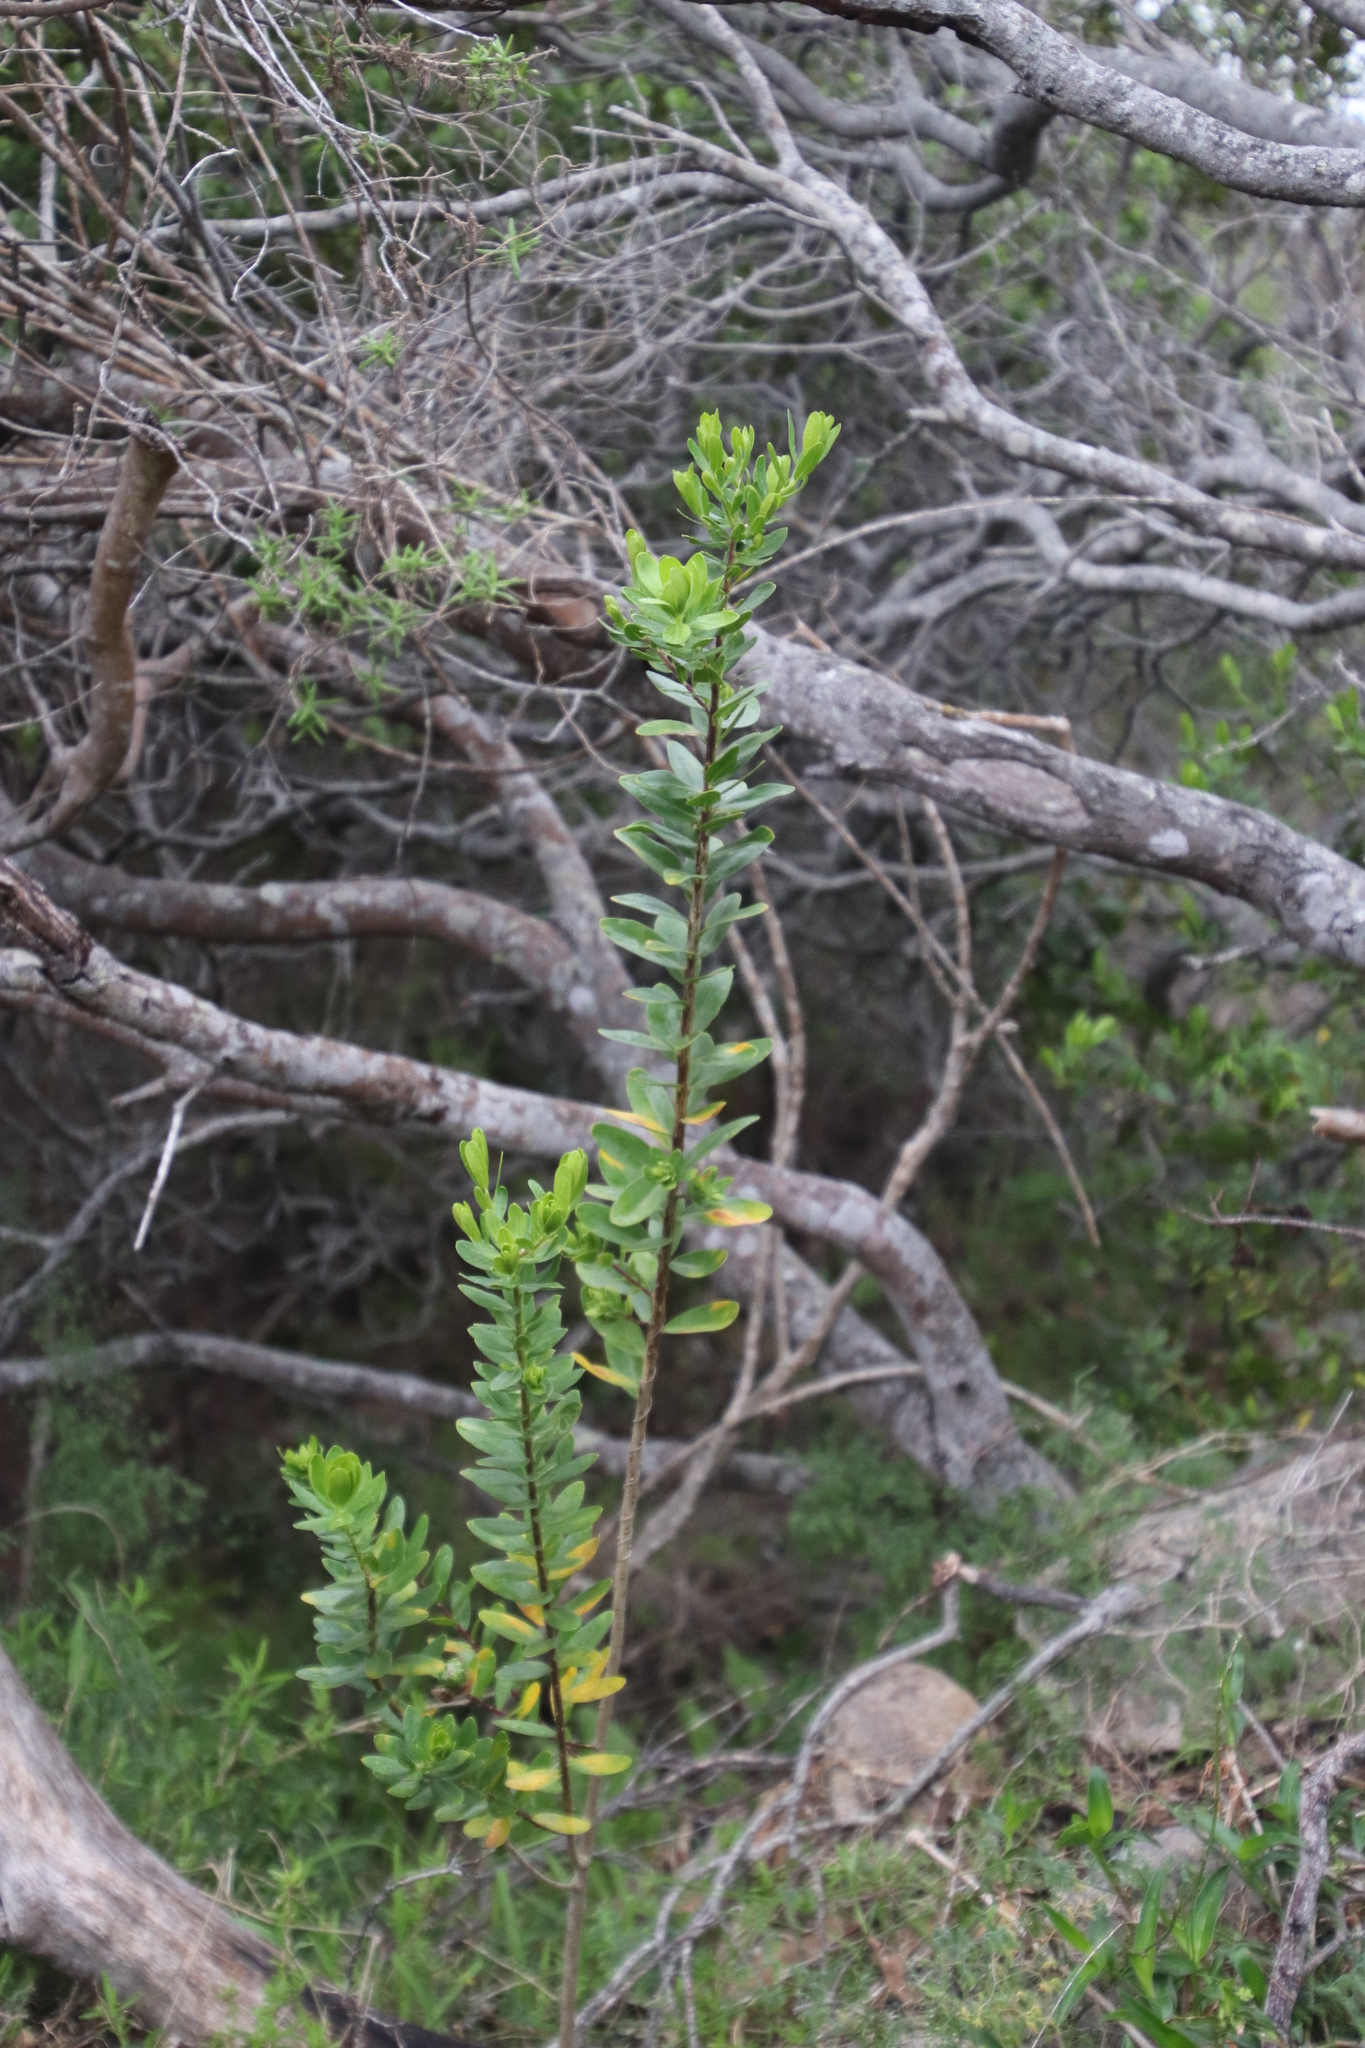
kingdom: Plantae
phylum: Tracheophyta
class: Magnoliopsida
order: Fabales
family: Polygalaceae
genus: Polygala
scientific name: Polygala myrtifolia
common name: Myrtle-leaf milkwort
